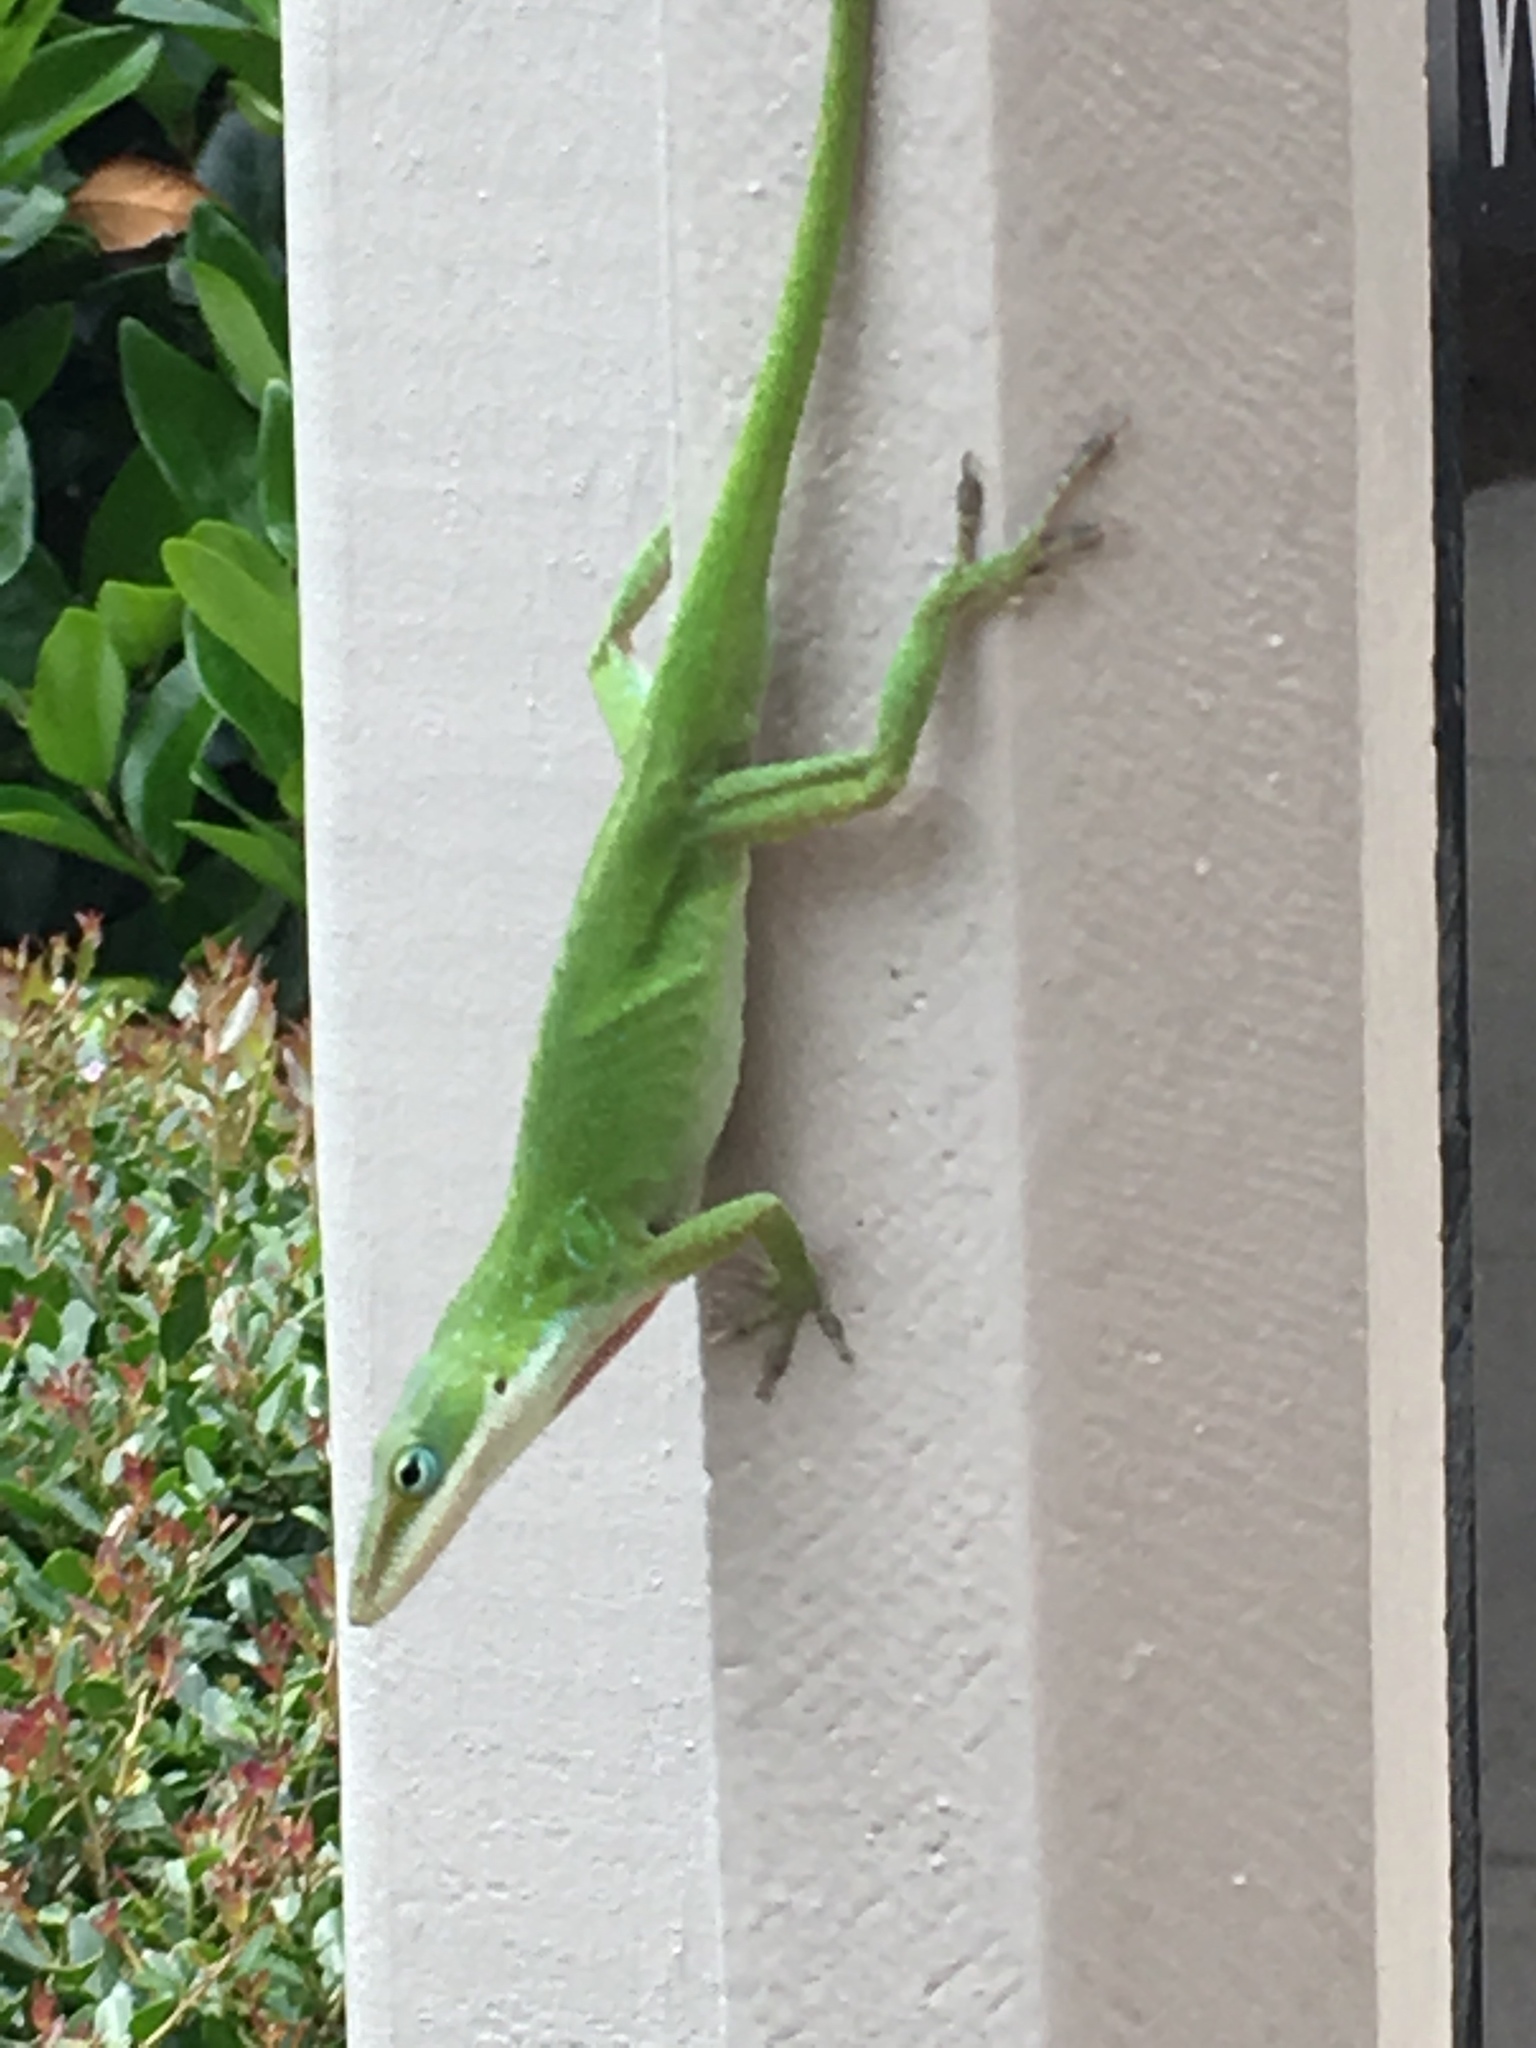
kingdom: Animalia
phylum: Chordata
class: Squamata
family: Dactyloidae
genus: Anolis
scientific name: Anolis carolinensis
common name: Green anole
